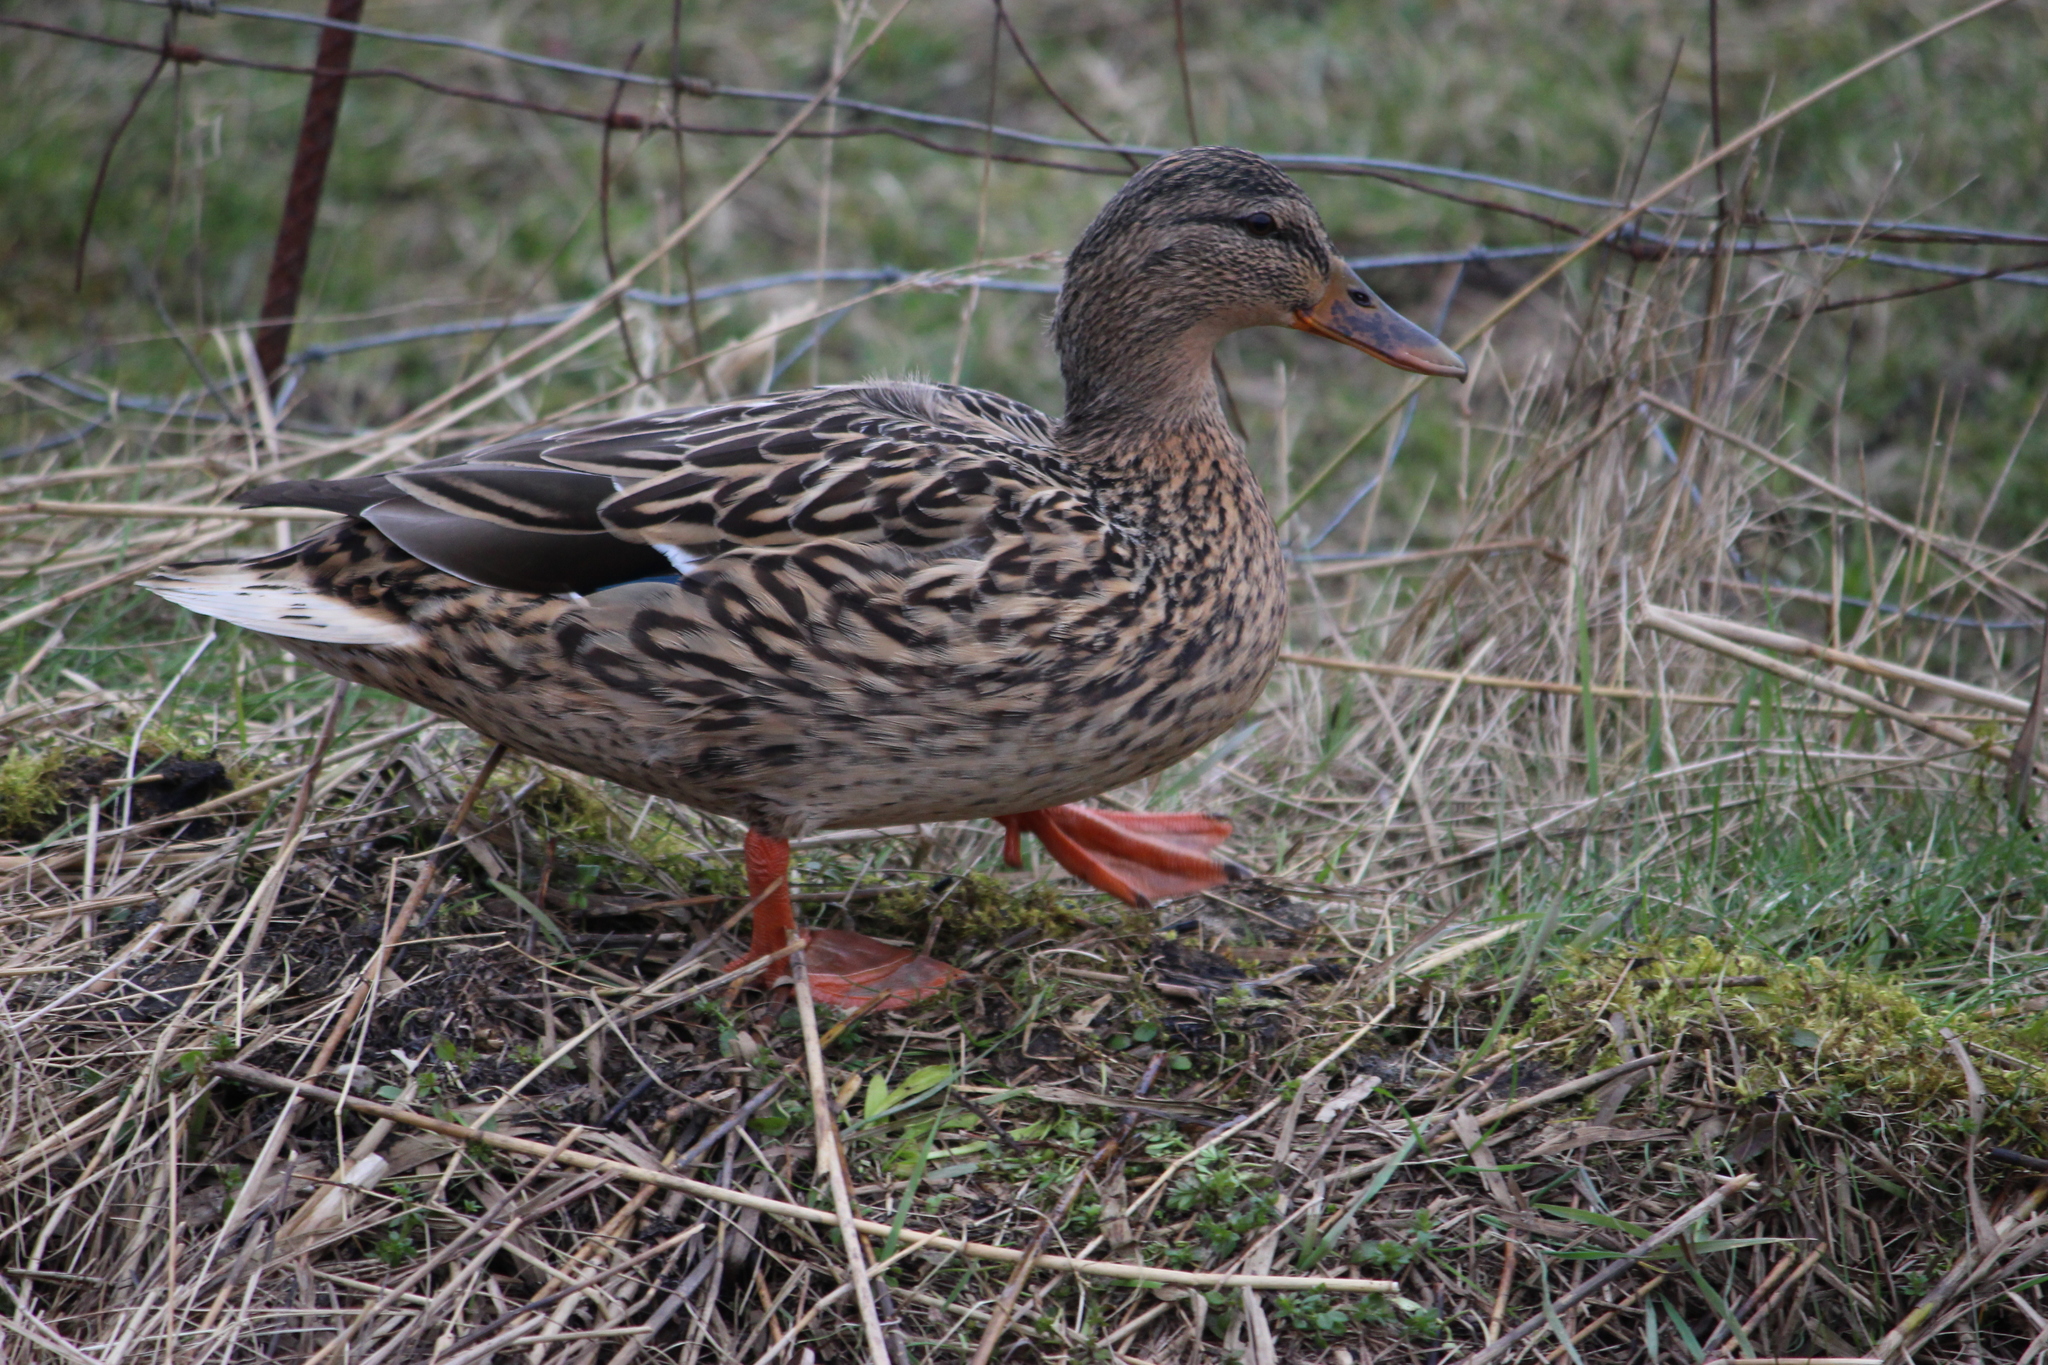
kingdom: Animalia
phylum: Chordata
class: Aves
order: Anseriformes
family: Anatidae
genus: Anas
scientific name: Anas platyrhynchos
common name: Mallard
